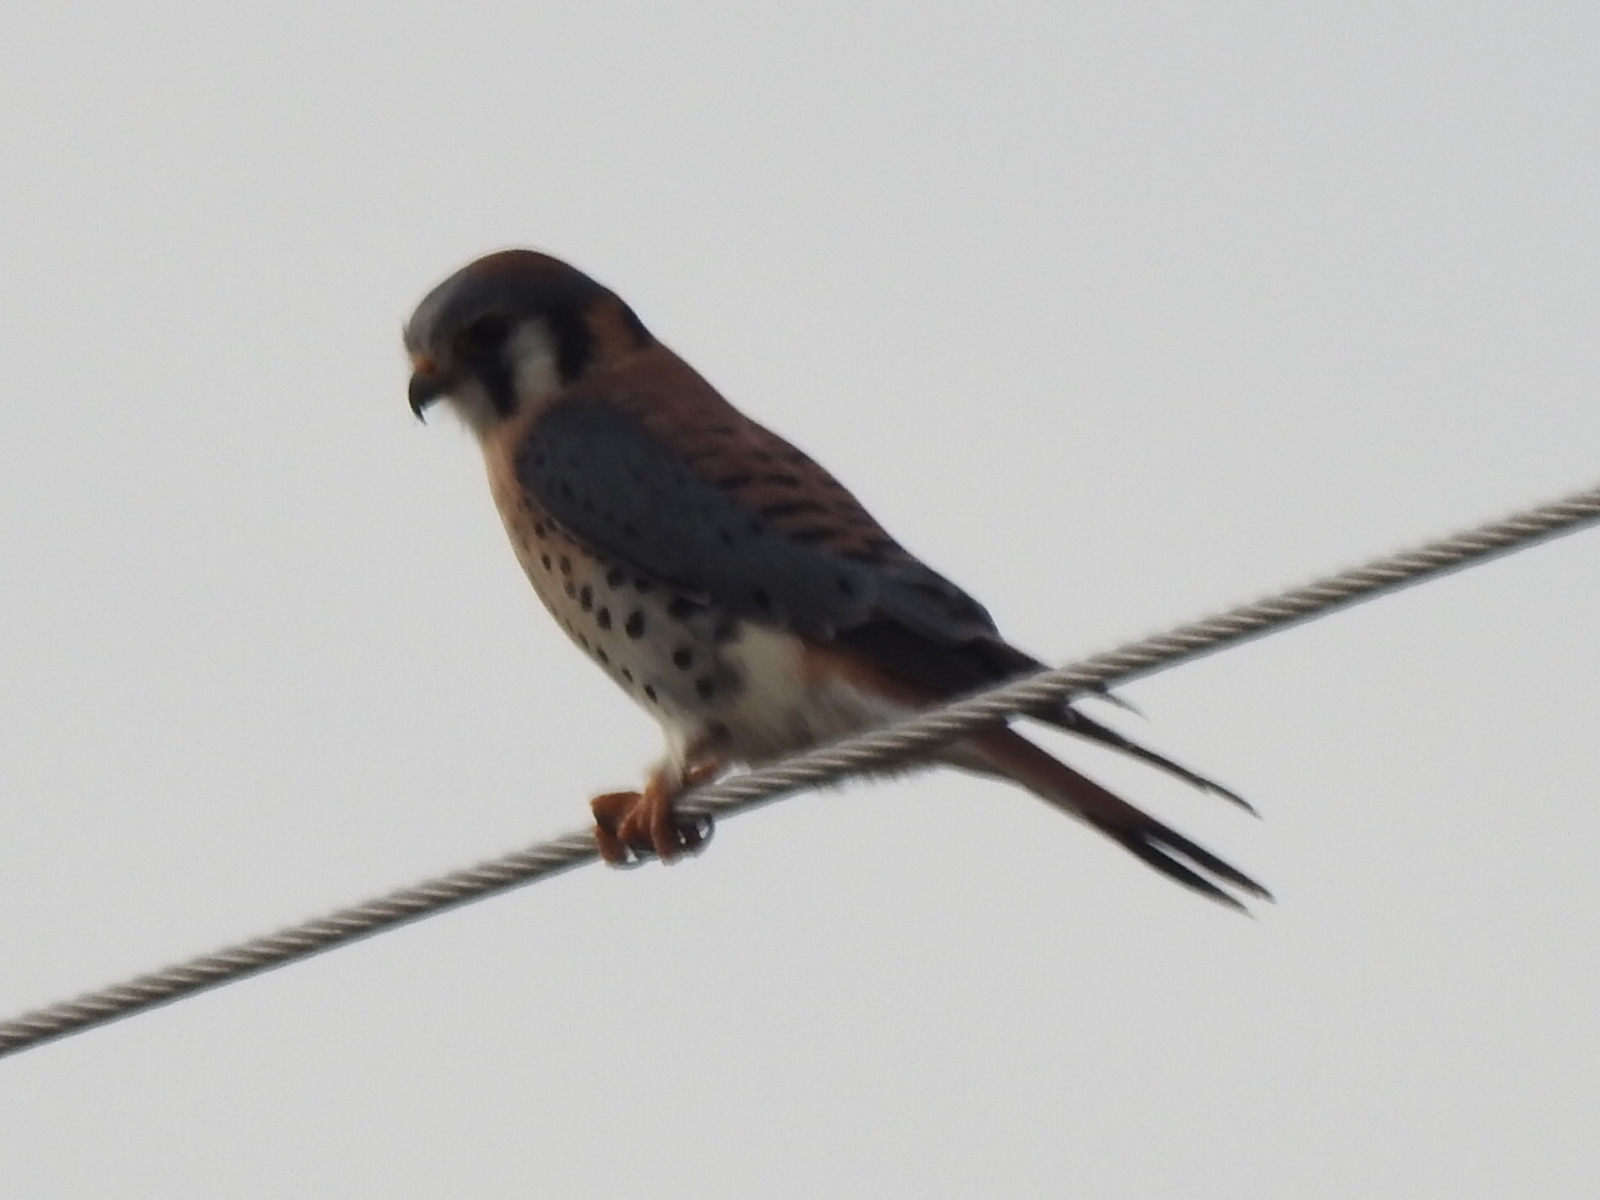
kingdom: Animalia
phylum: Chordata
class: Aves
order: Falconiformes
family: Falconidae
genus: Falco
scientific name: Falco sparverius
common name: American kestrel
